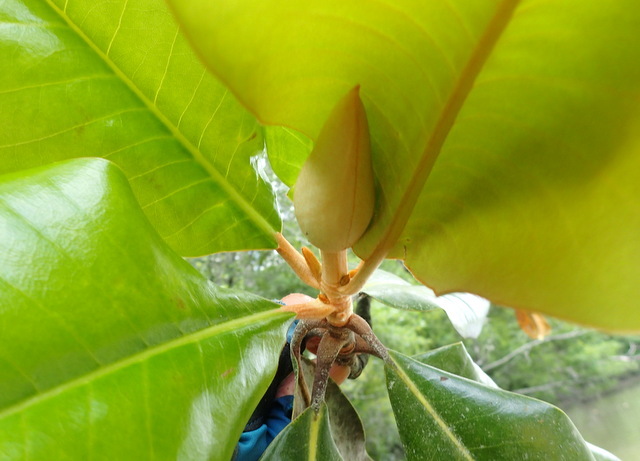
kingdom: Plantae
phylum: Tracheophyta
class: Magnoliopsida
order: Magnoliales
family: Magnoliaceae
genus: Magnolia
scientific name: Magnolia grandiflora
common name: Southern magnolia
